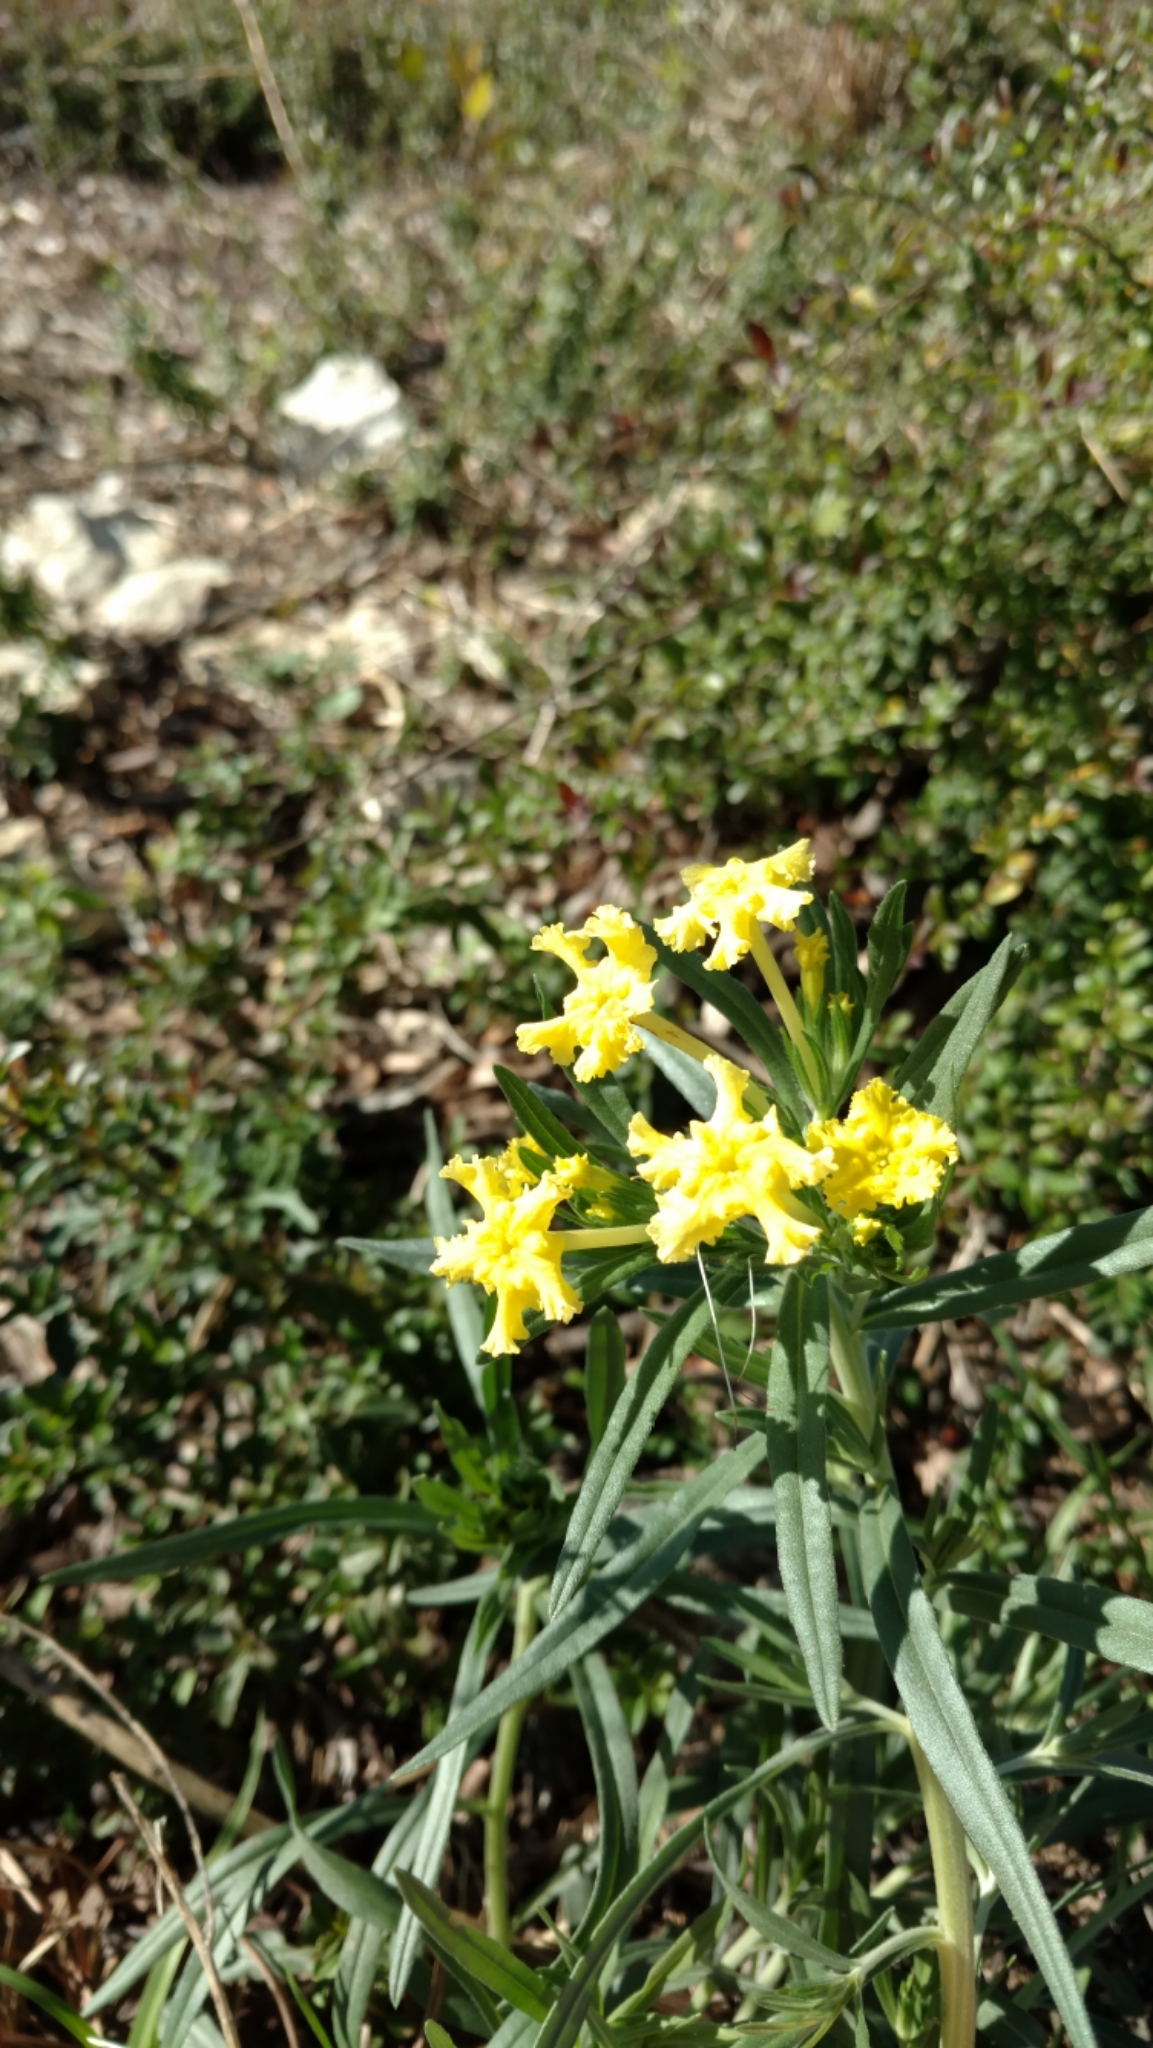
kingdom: Plantae
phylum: Tracheophyta
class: Magnoliopsida
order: Boraginales
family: Boraginaceae
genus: Lithospermum
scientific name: Lithospermum incisum
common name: Fringed gromwell
